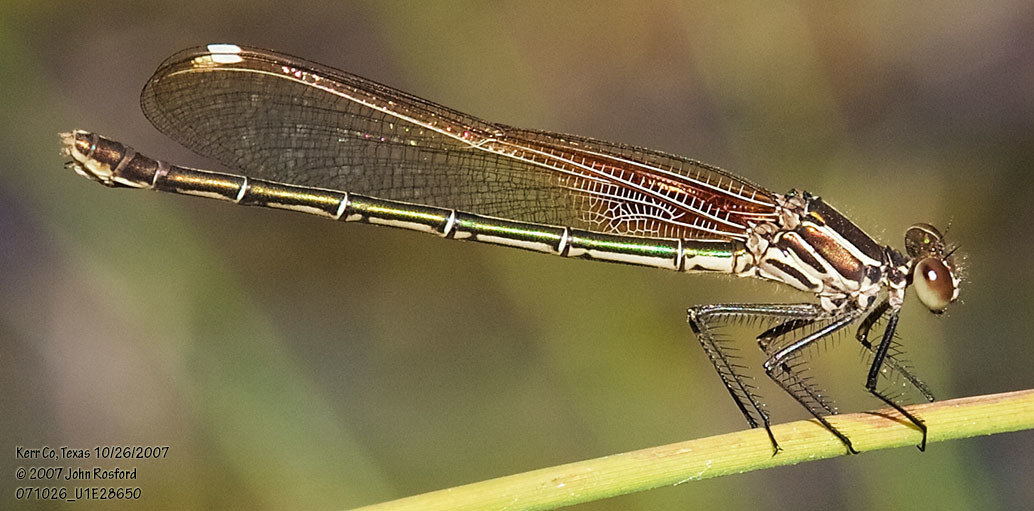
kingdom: Animalia
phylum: Arthropoda
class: Insecta
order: Odonata
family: Calopterygidae
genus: Hetaerina
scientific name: Hetaerina americana
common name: American rubyspot
